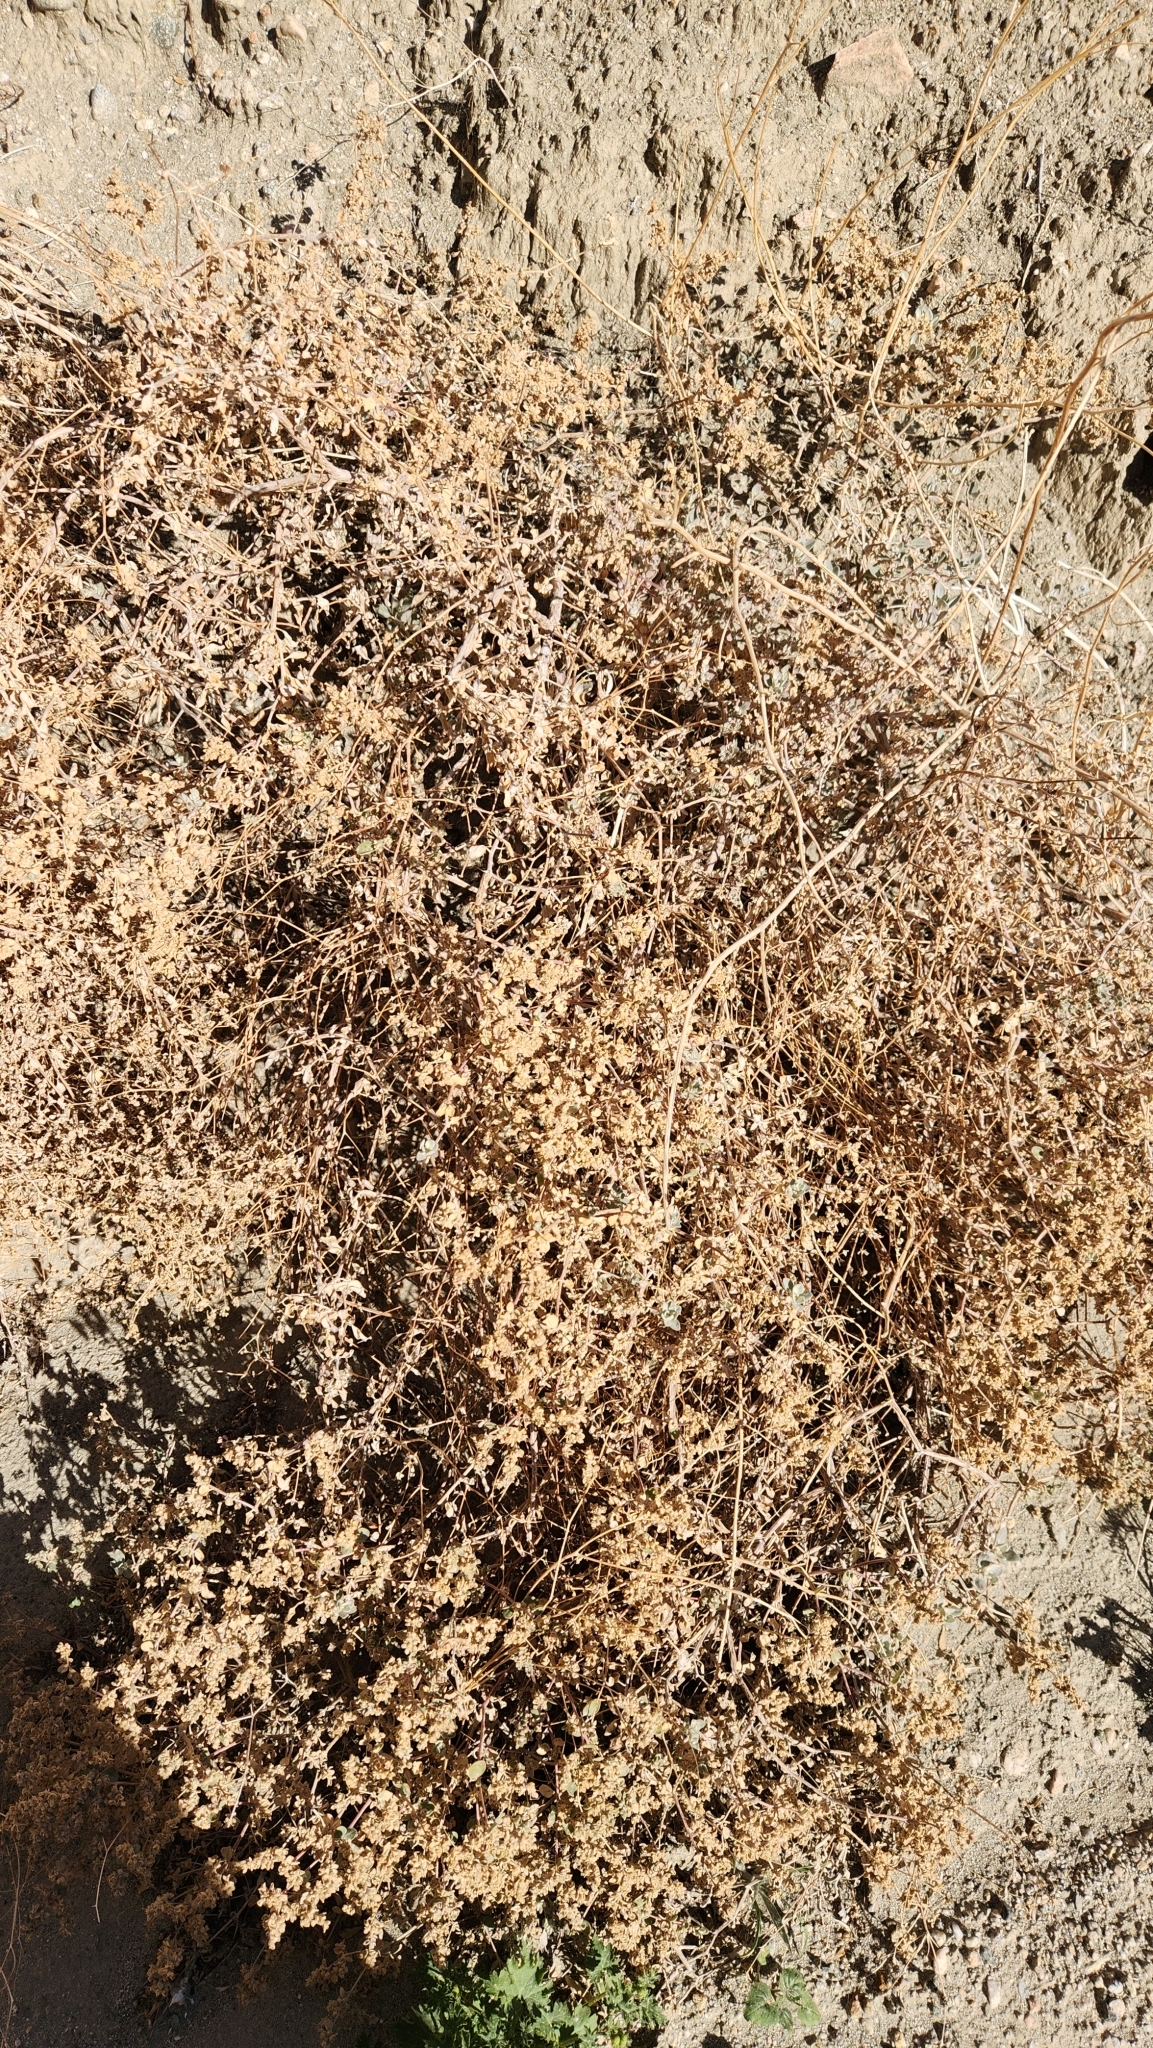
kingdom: Plantae
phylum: Tracheophyta
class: Magnoliopsida
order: Caryophyllales
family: Amaranthaceae
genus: Tidestromia
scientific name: Tidestromia suffruticosa
